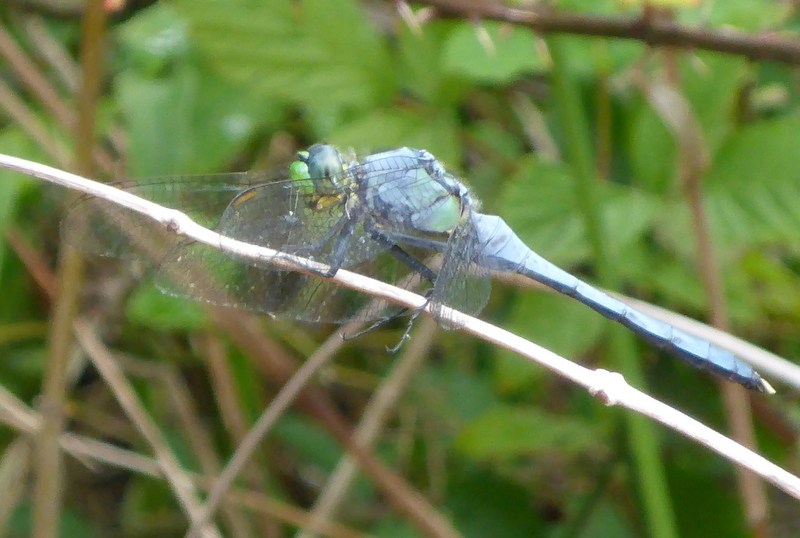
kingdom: Animalia
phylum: Arthropoda
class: Insecta
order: Odonata
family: Libellulidae
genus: Erythemis
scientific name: Erythemis simplicicollis
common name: Eastern pondhawk
